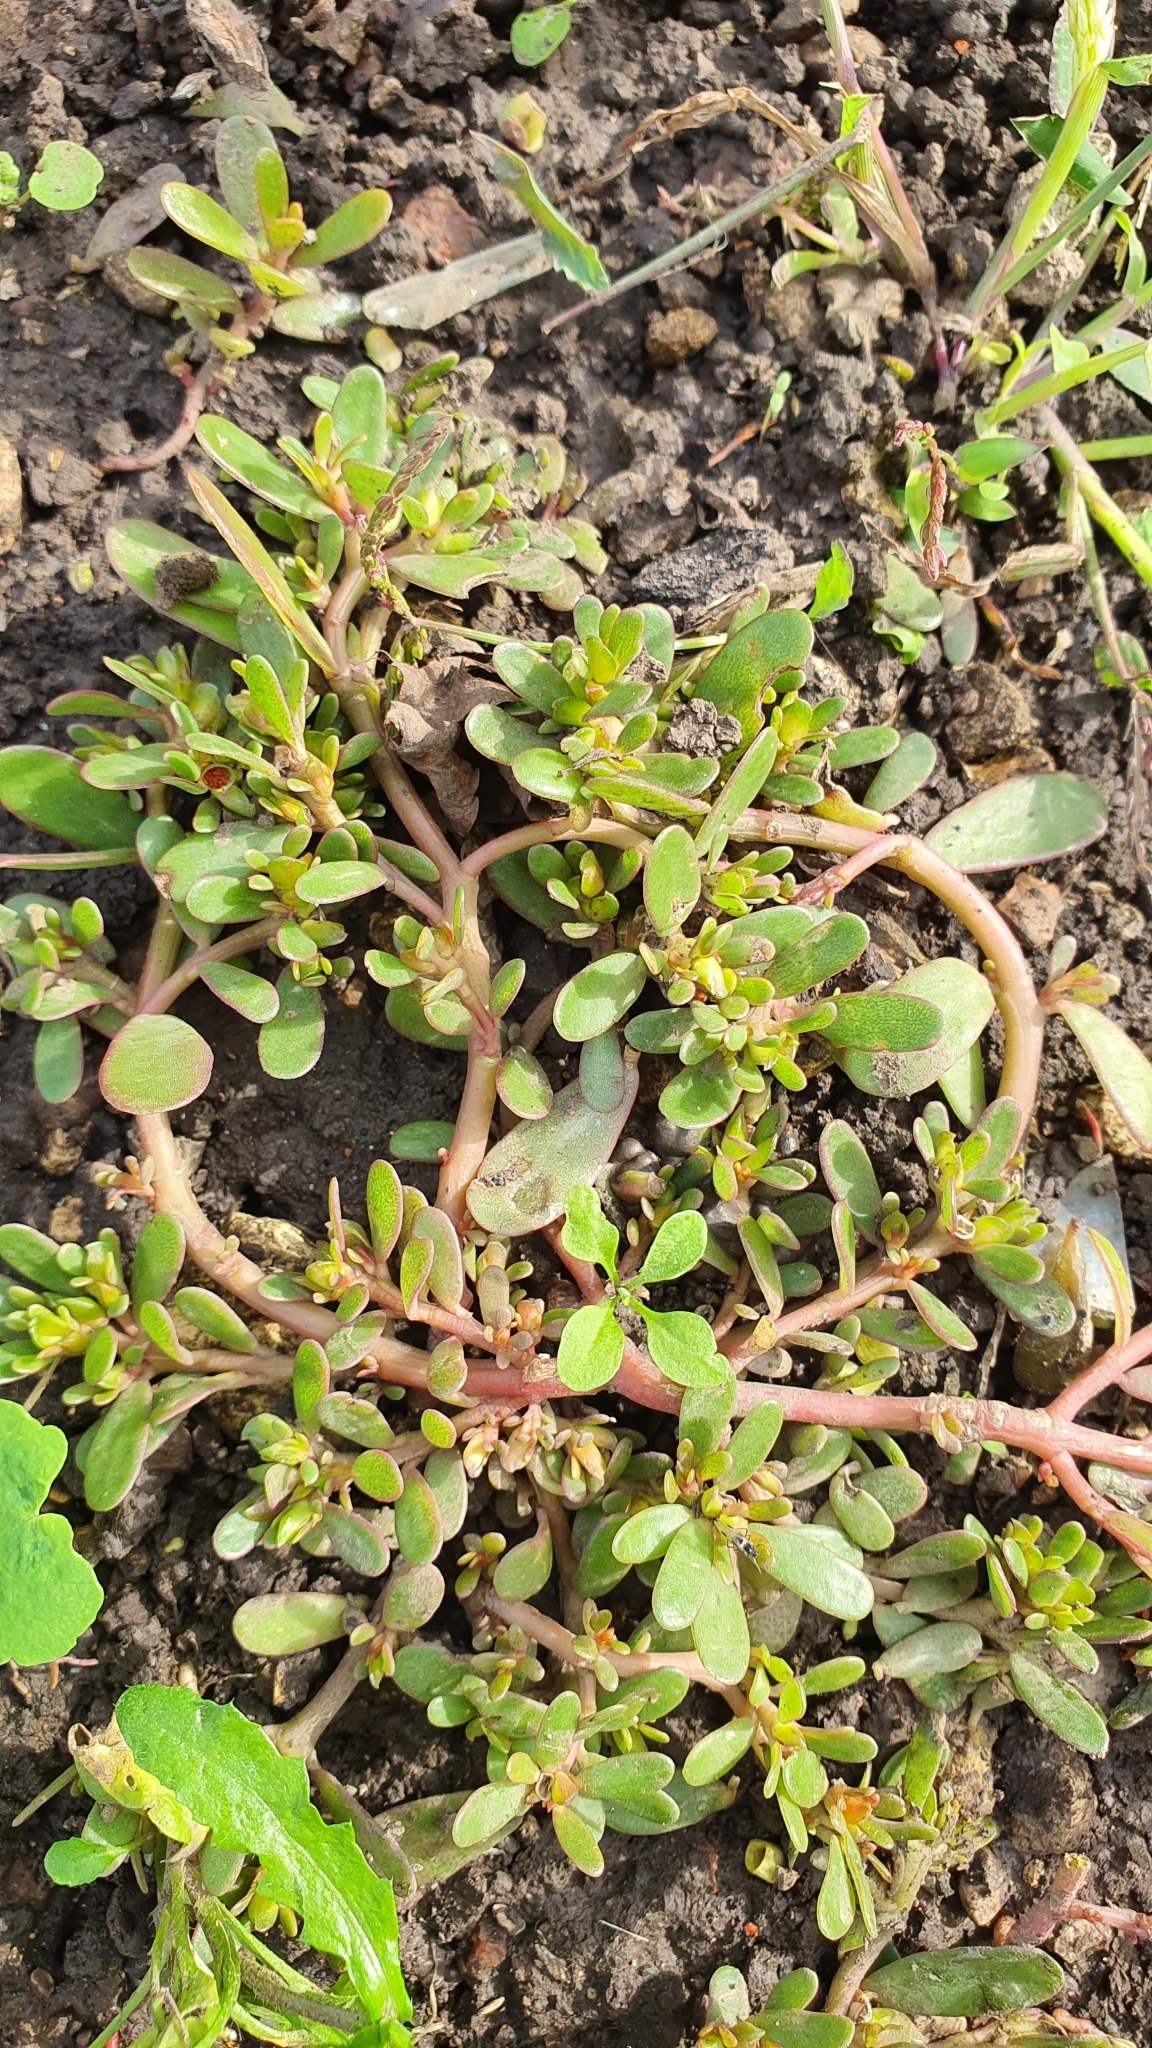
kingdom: Plantae
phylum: Tracheophyta
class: Magnoliopsida
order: Caryophyllales
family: Portulacaceae
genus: Portulaca
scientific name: Portulaca oleracea
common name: Common purslane
